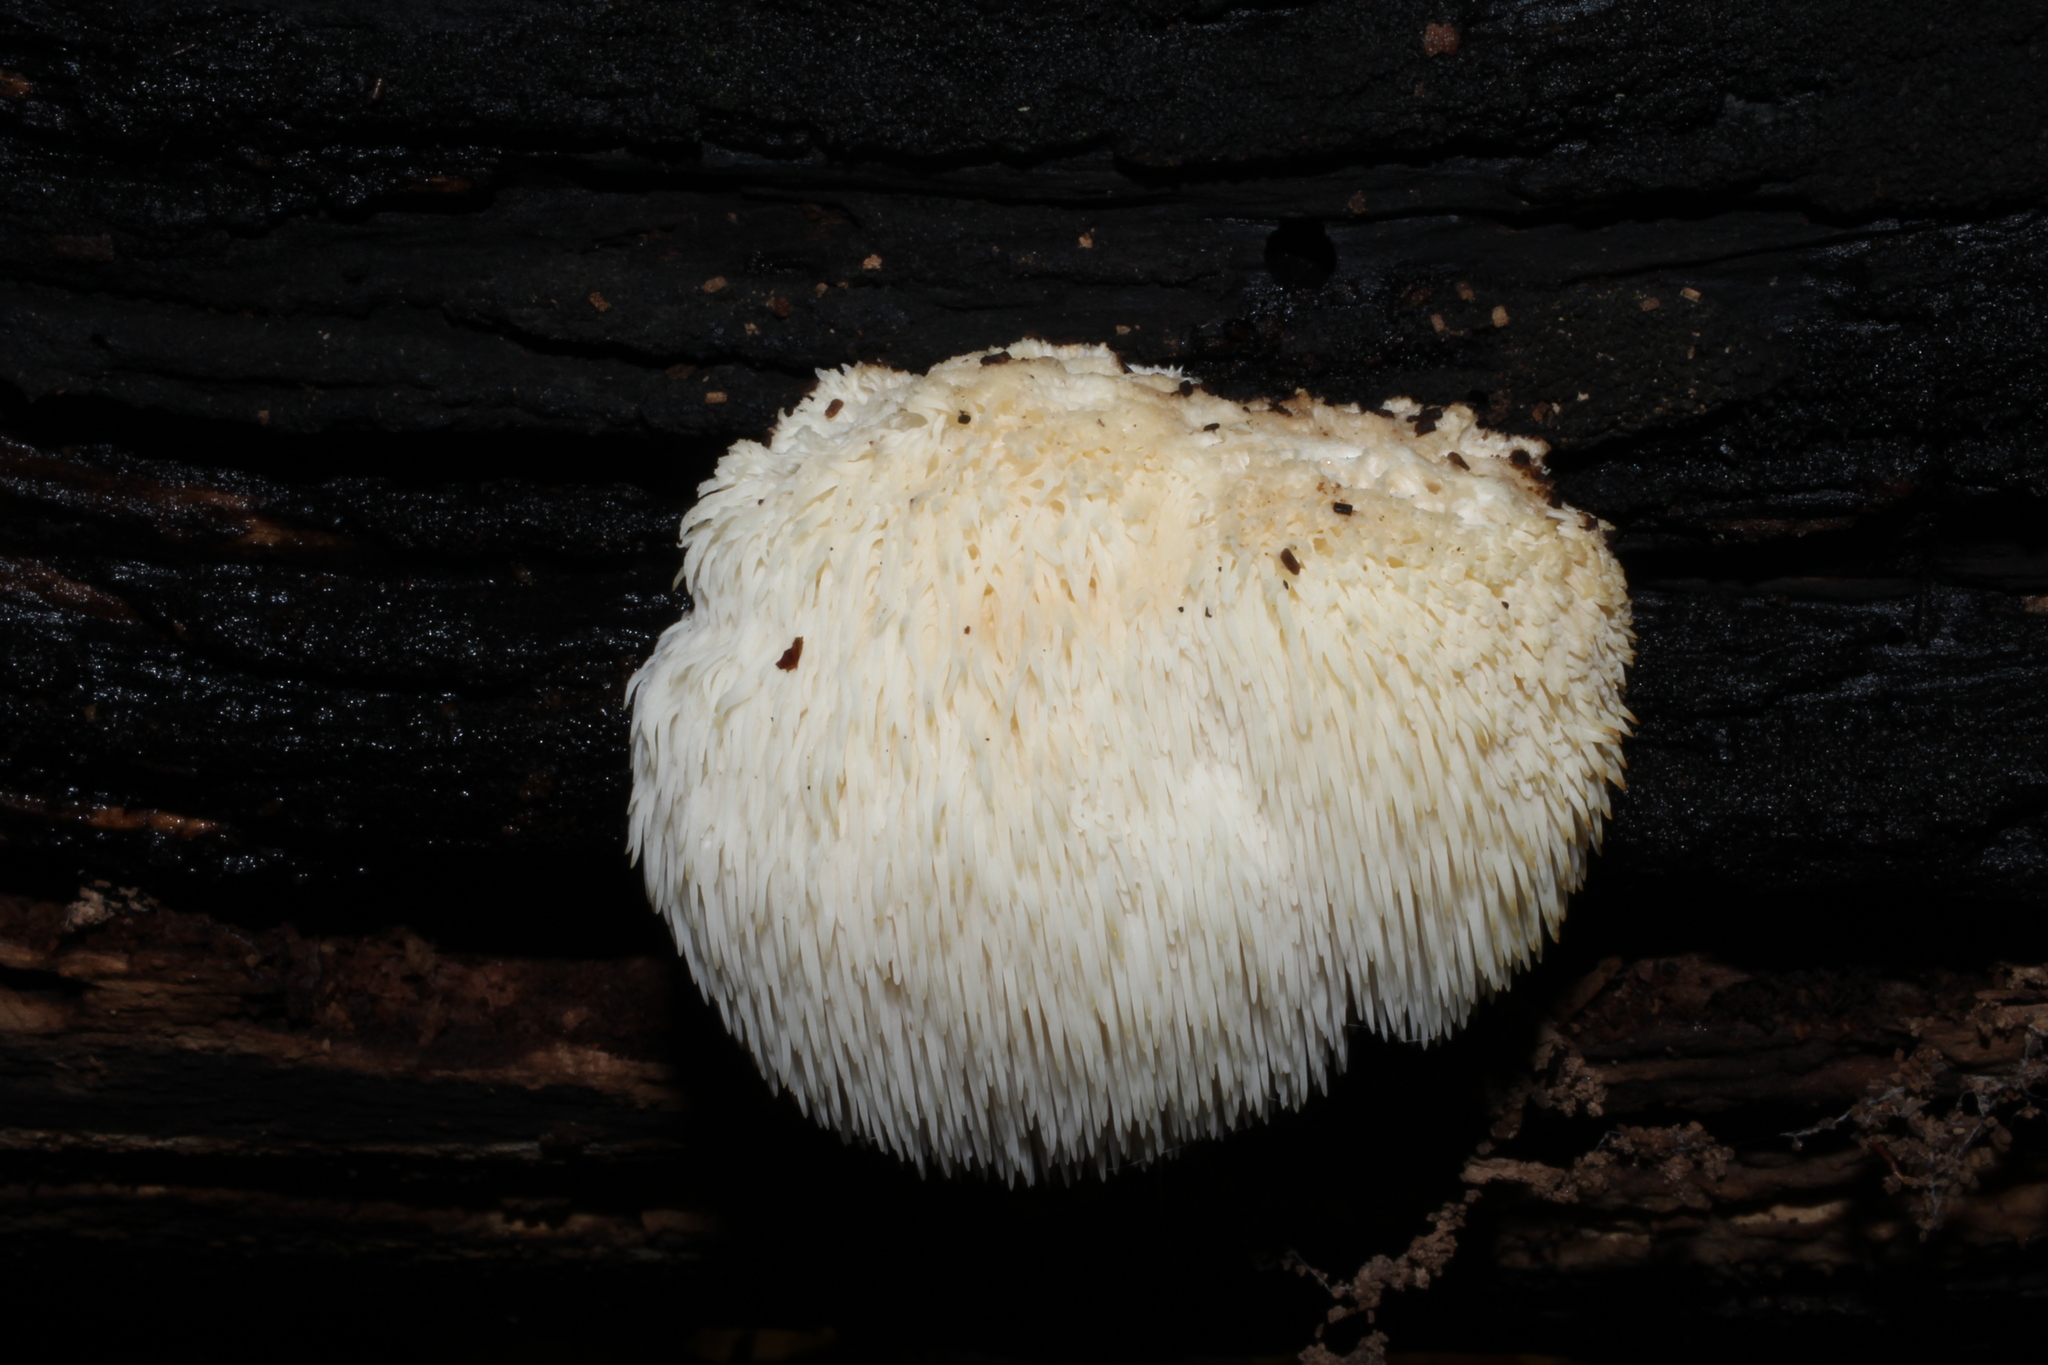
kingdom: Fungi
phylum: Basidiomycota
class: Agaricomycetes
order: Russulales
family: Hericiaceae
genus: Hericium
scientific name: Hericium erinaceus
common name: Bearded tooth
